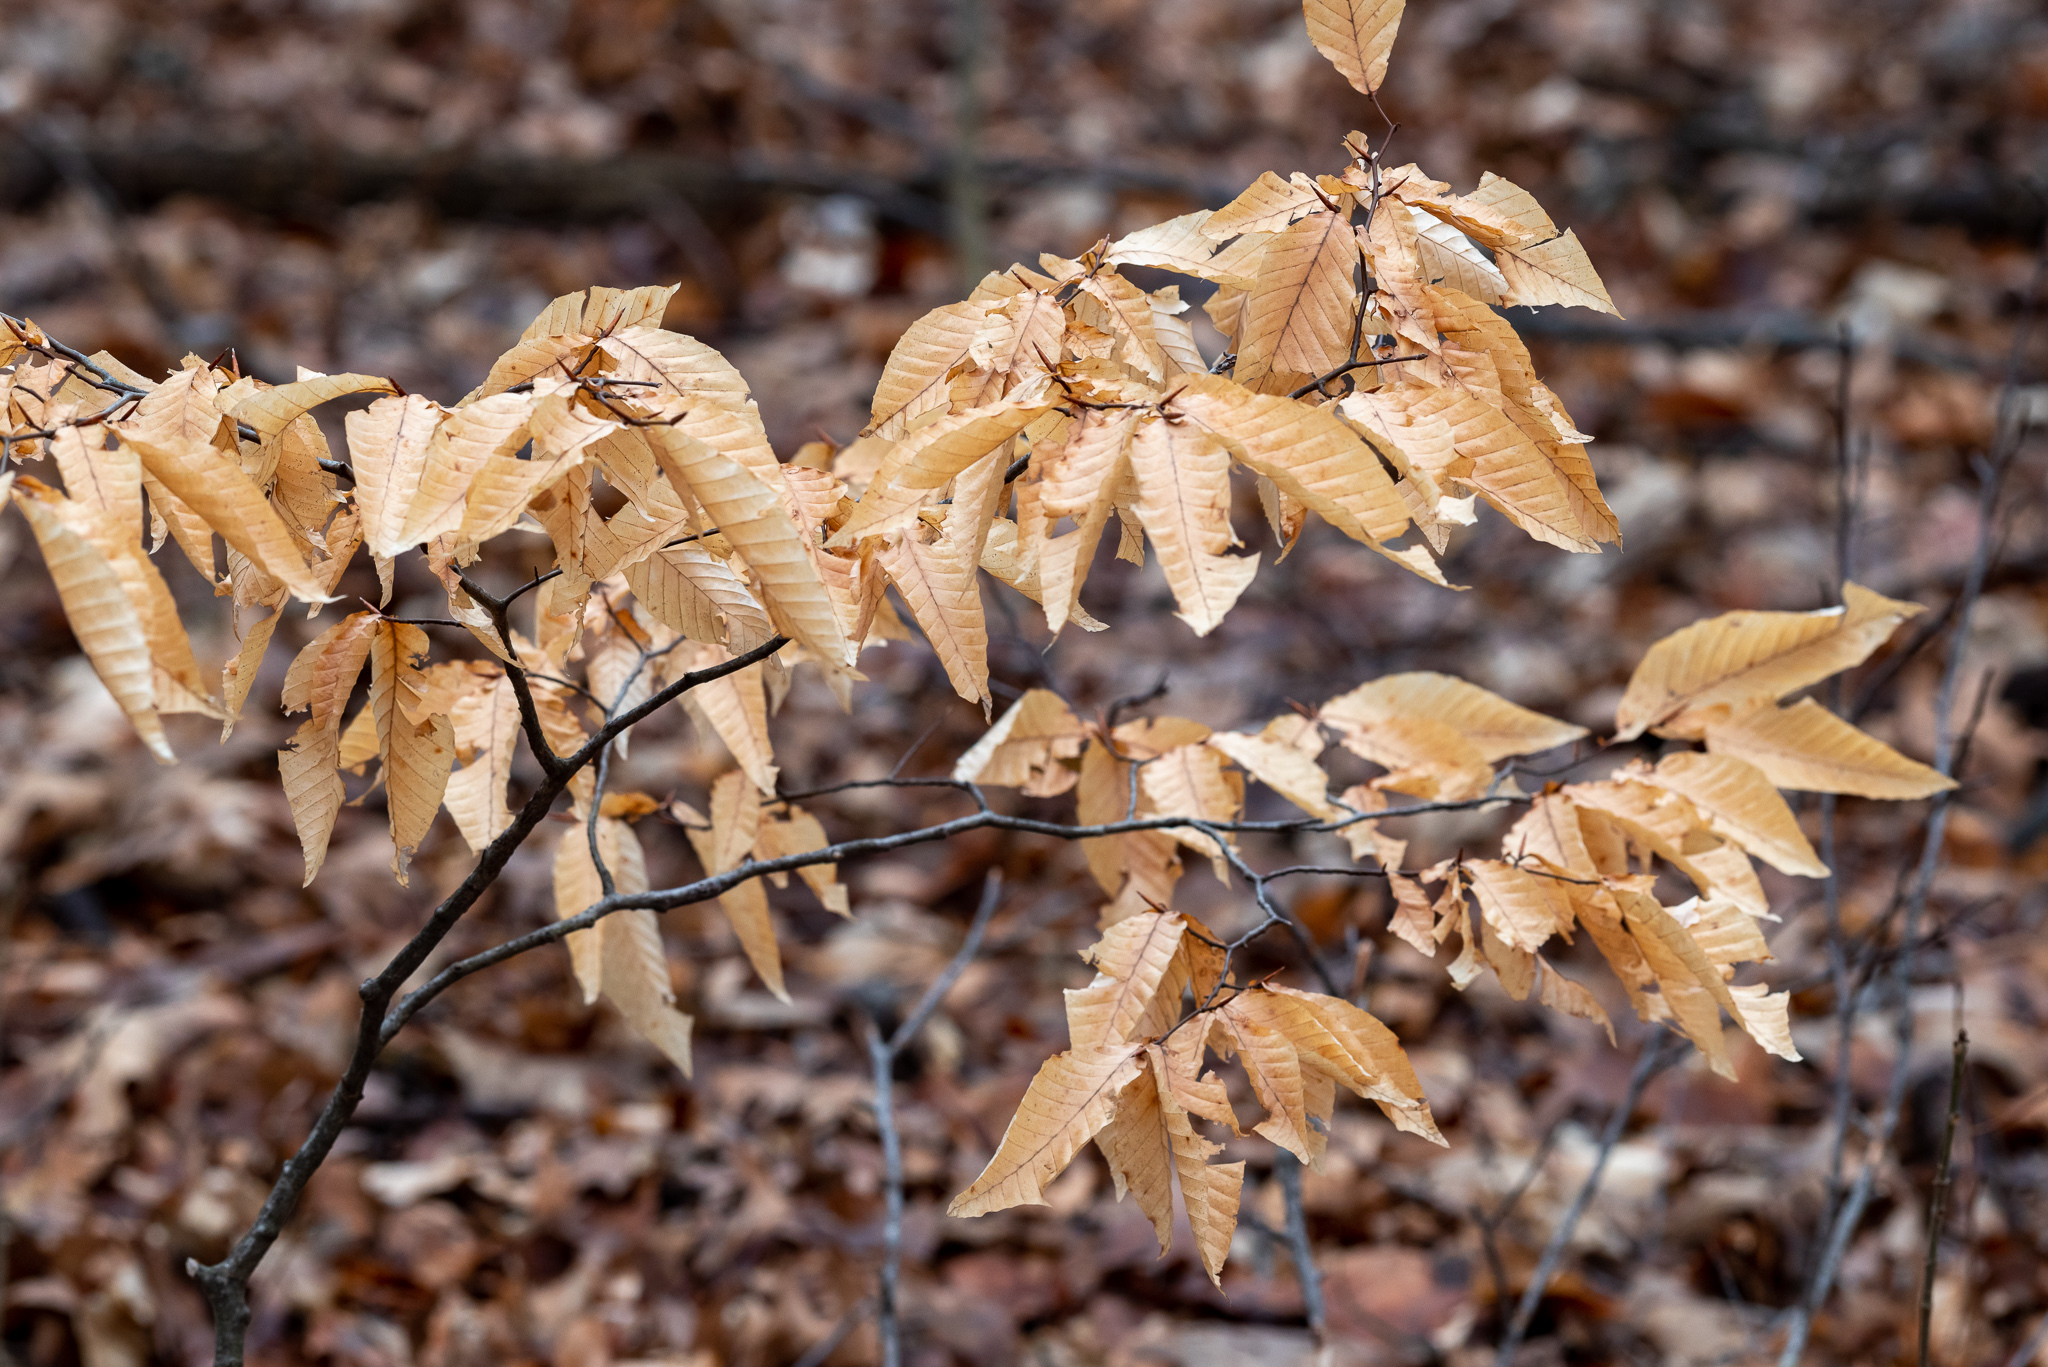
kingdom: Plantae
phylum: Tracheophyta
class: Magnoliopsida
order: Fagales
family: Fagaceae
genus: Fagus
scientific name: Fagus grandifolia
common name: American beech
